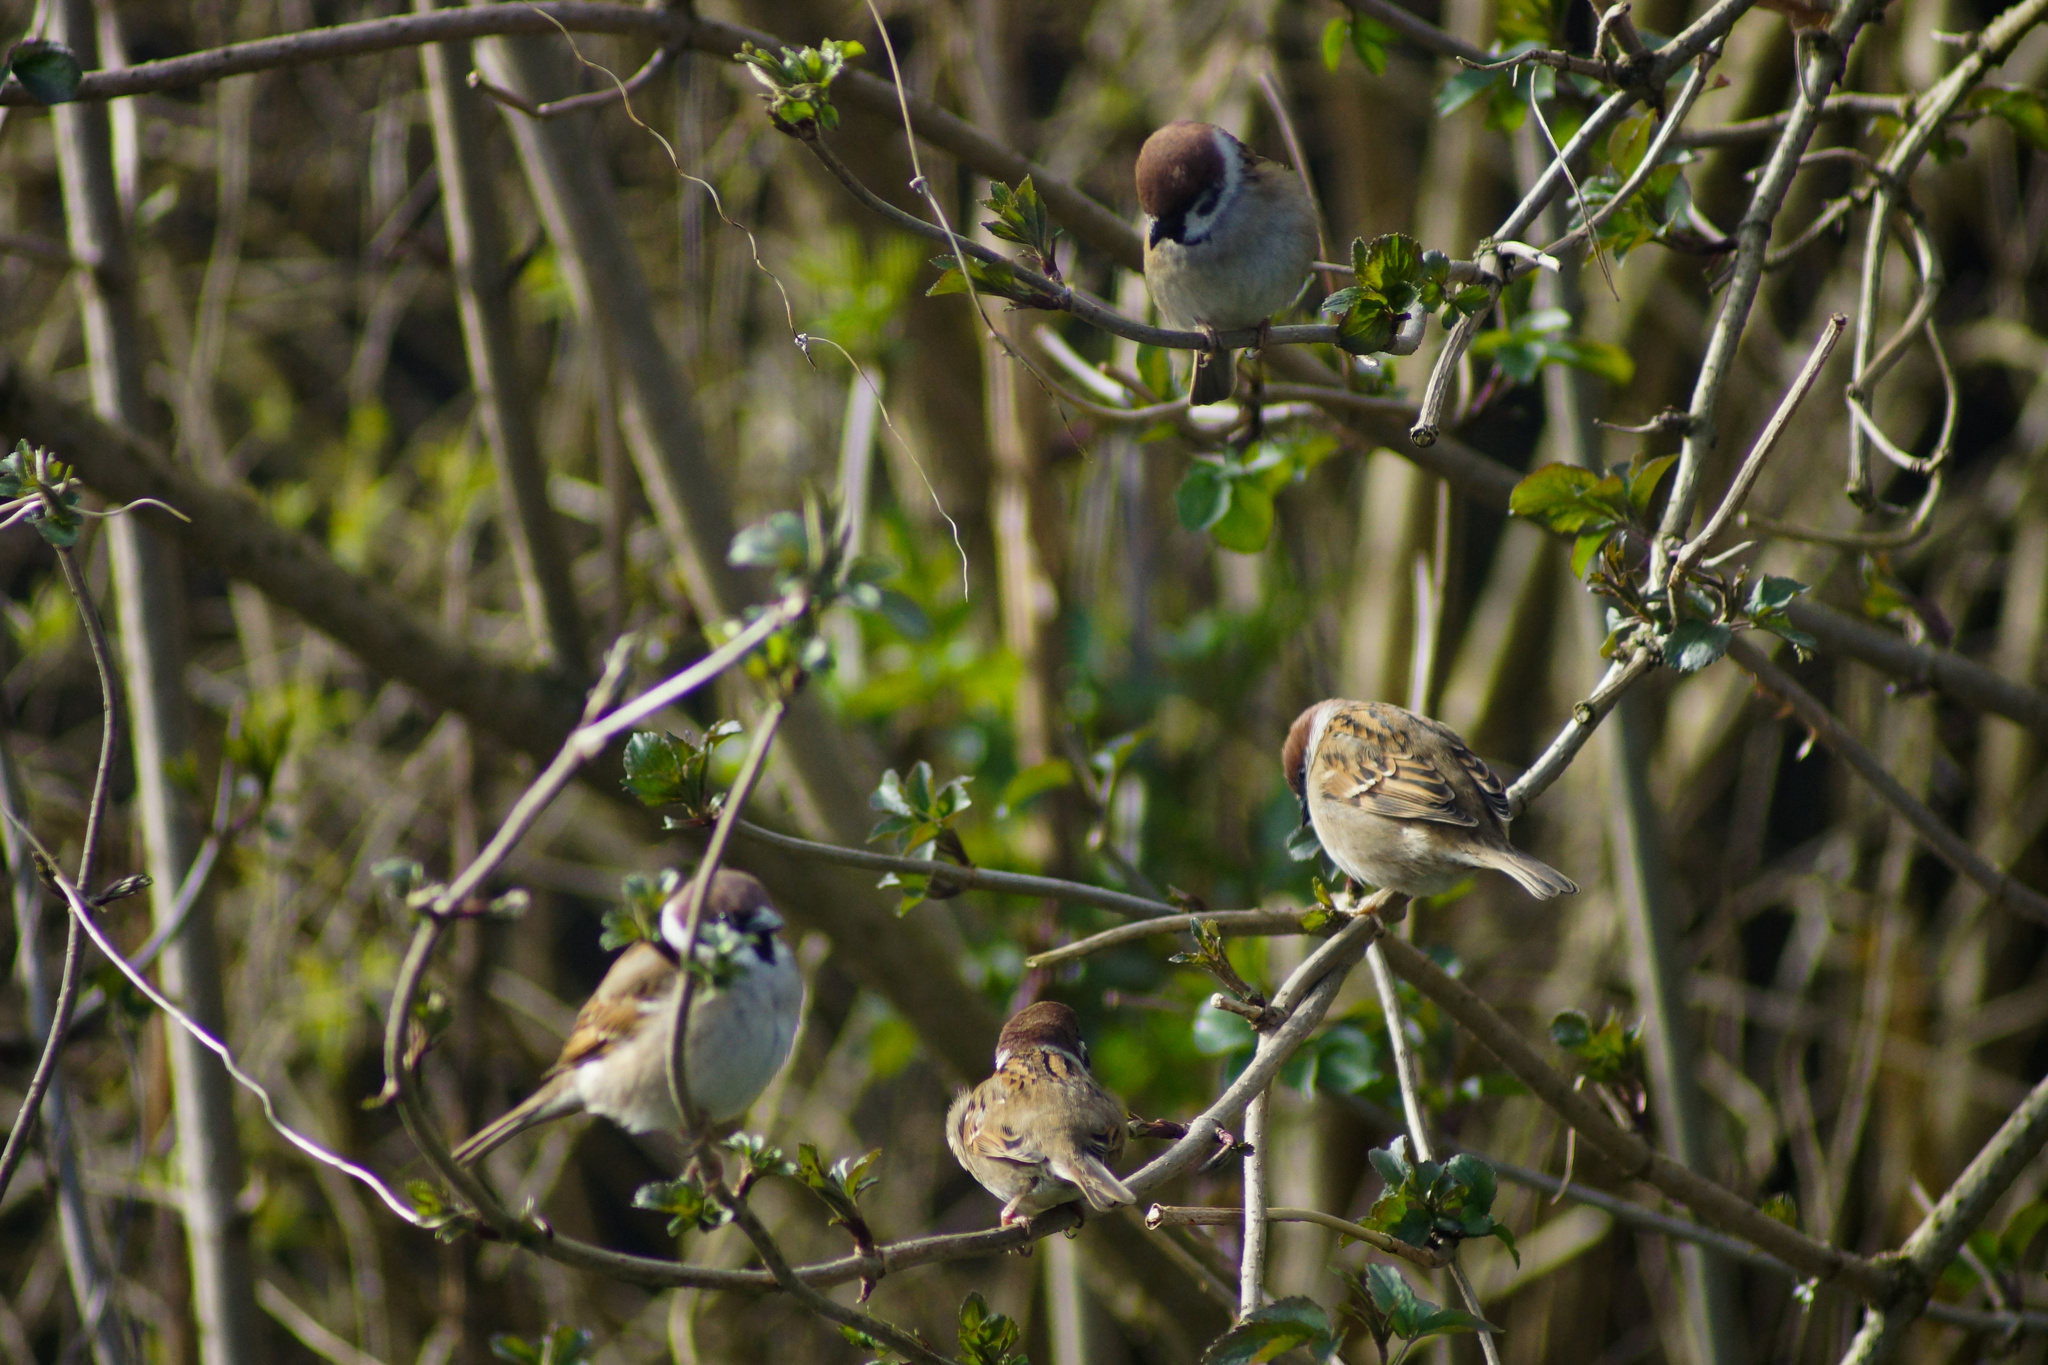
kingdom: Animalia
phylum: Chordata
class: Aves
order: Passeriformes
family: Passeridae
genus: Passer
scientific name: Passer montanus
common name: Eurasian tree sparrow
